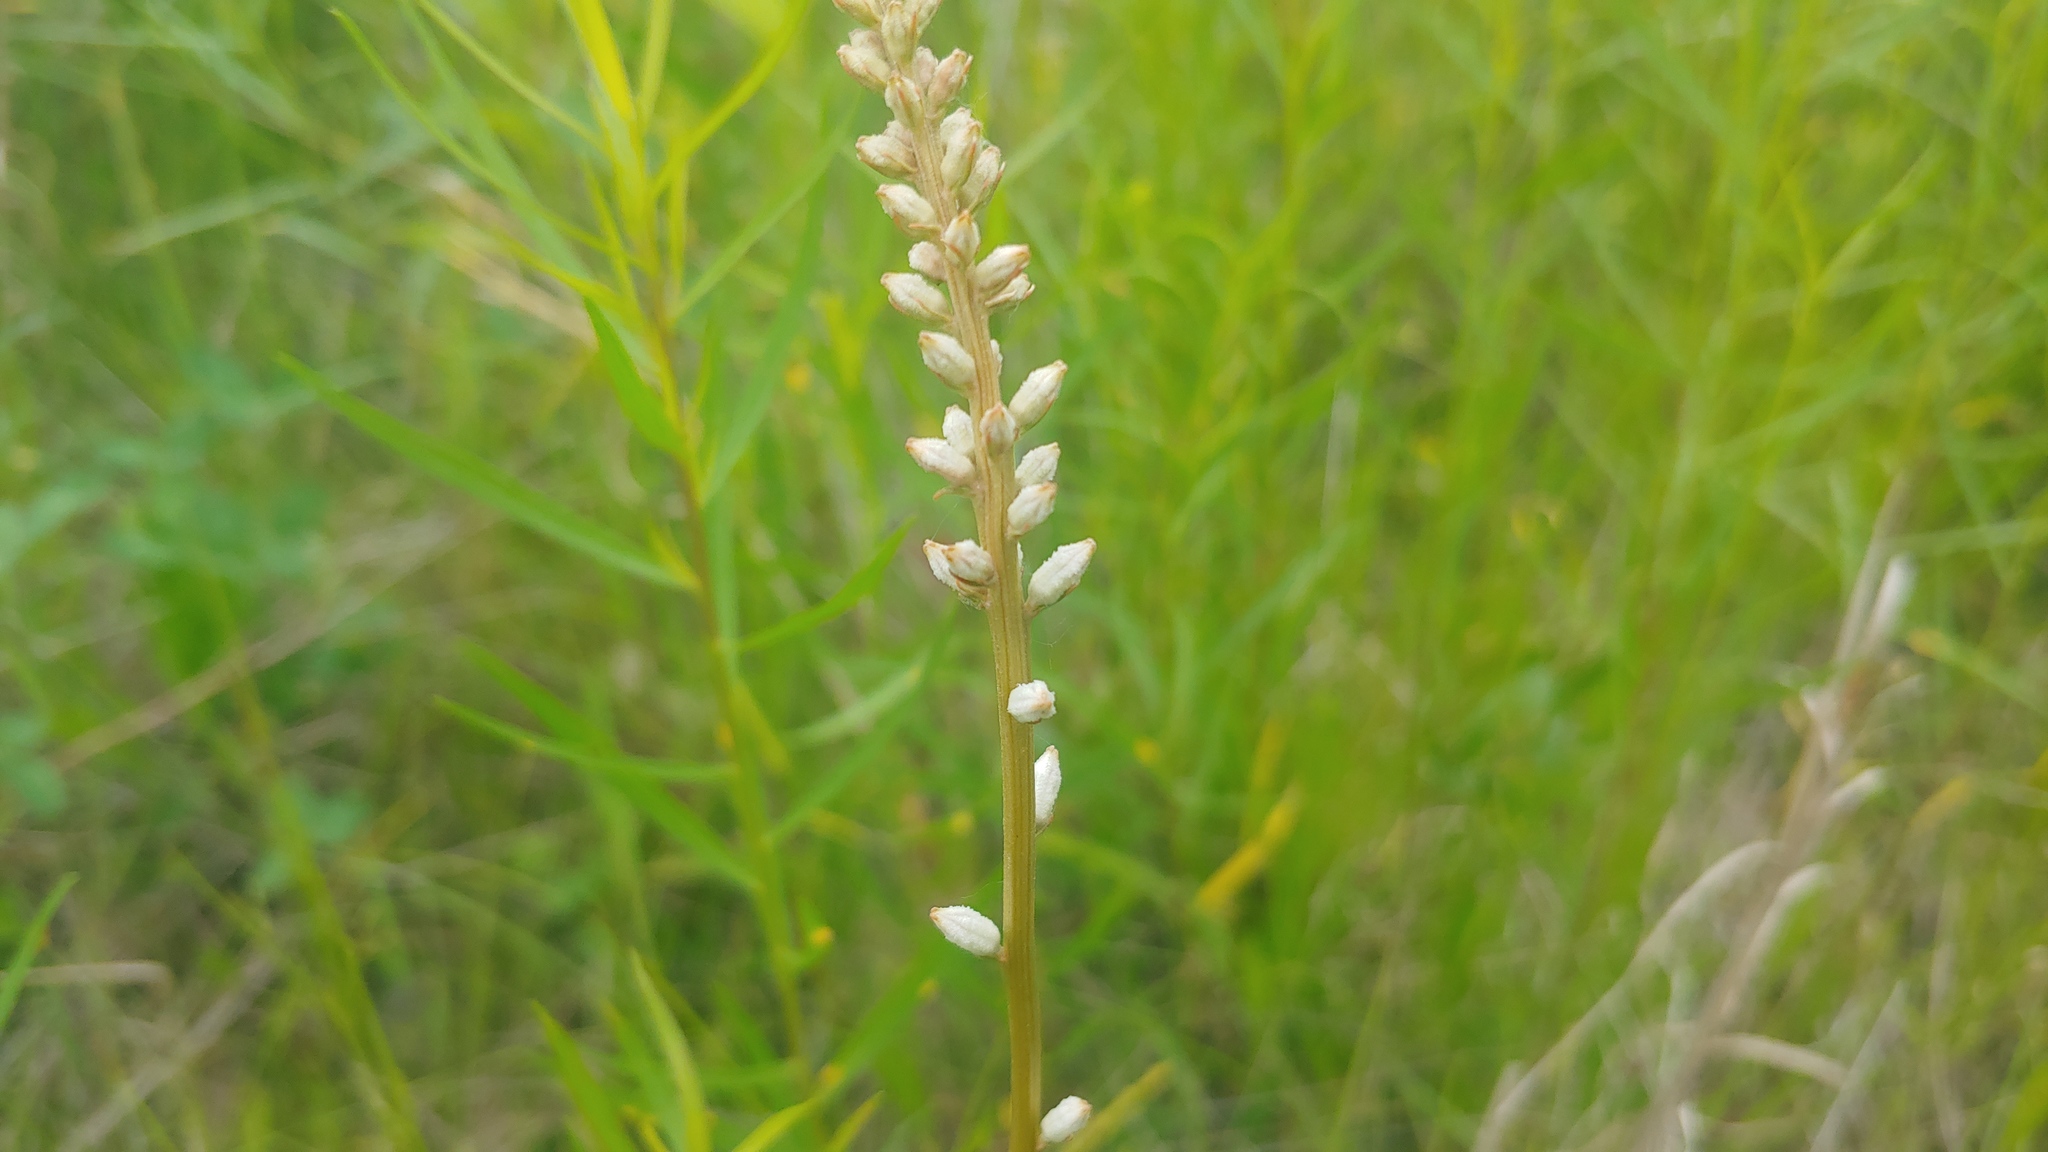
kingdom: Plantae
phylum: Tracheophyta
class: Liliopsida
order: Dioscoreales
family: Nartheciaceae
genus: Aletris
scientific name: Aletris farinosa
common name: Colicroot
